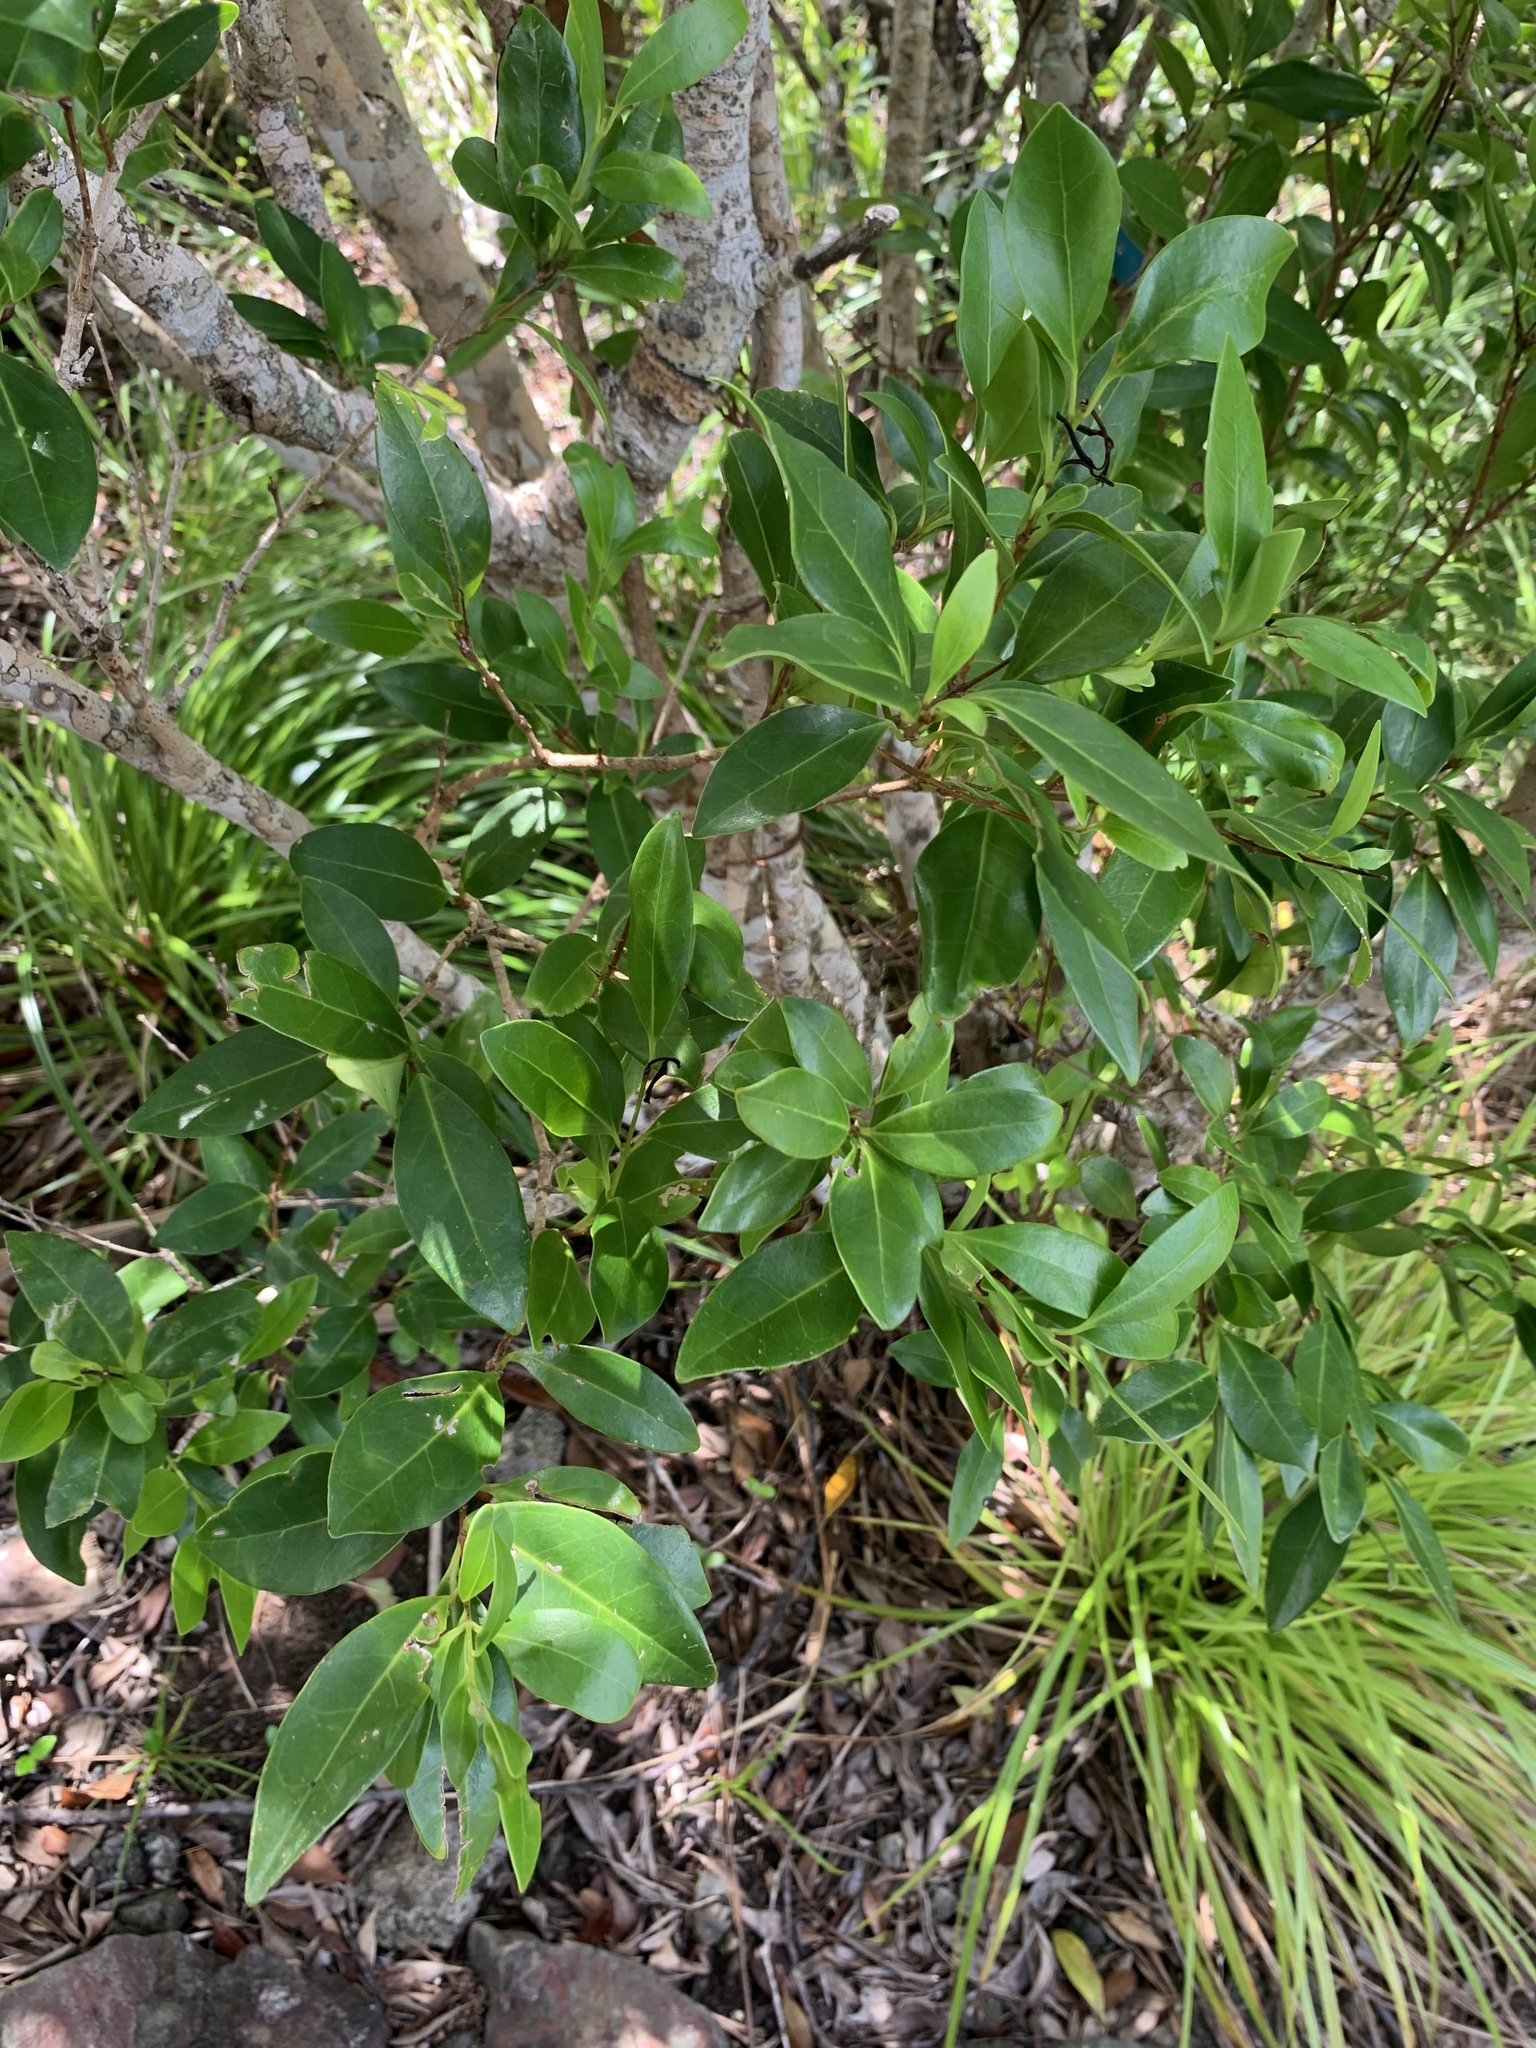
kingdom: Plantae
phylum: Tracheophyta
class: Magnoliopsida
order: Lamiales
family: Oleaceae
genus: Ligustrum
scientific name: Ligustrum micranthum
